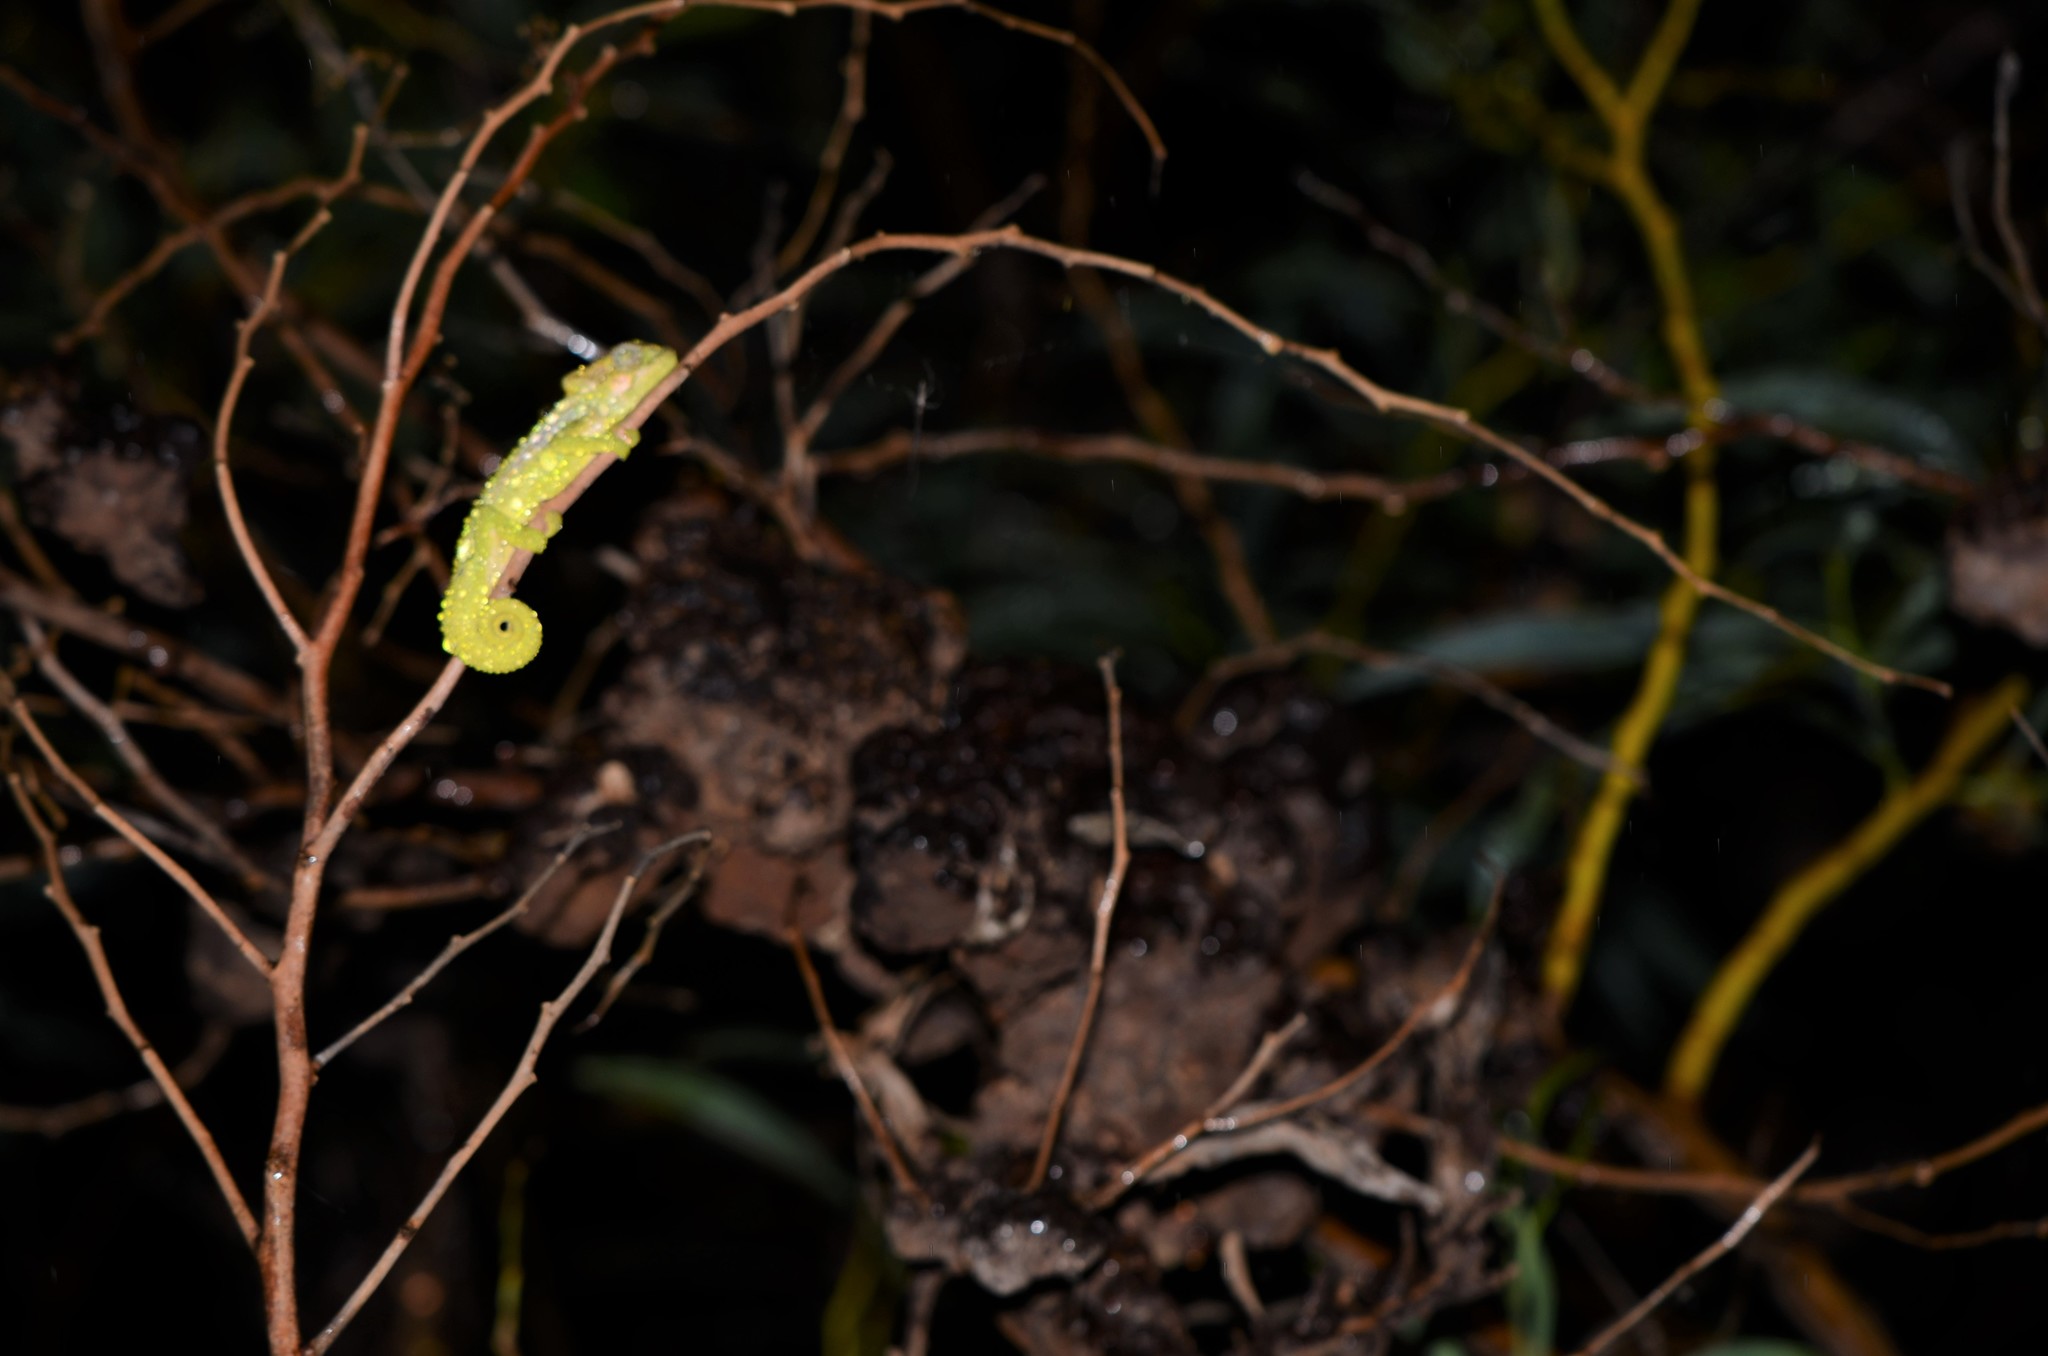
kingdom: Animalia
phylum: Chordata
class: Squamata
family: Chamaeleonidae
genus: Bradypodion
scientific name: Bradypodion pumilum
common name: Cape dwarf chameleon
